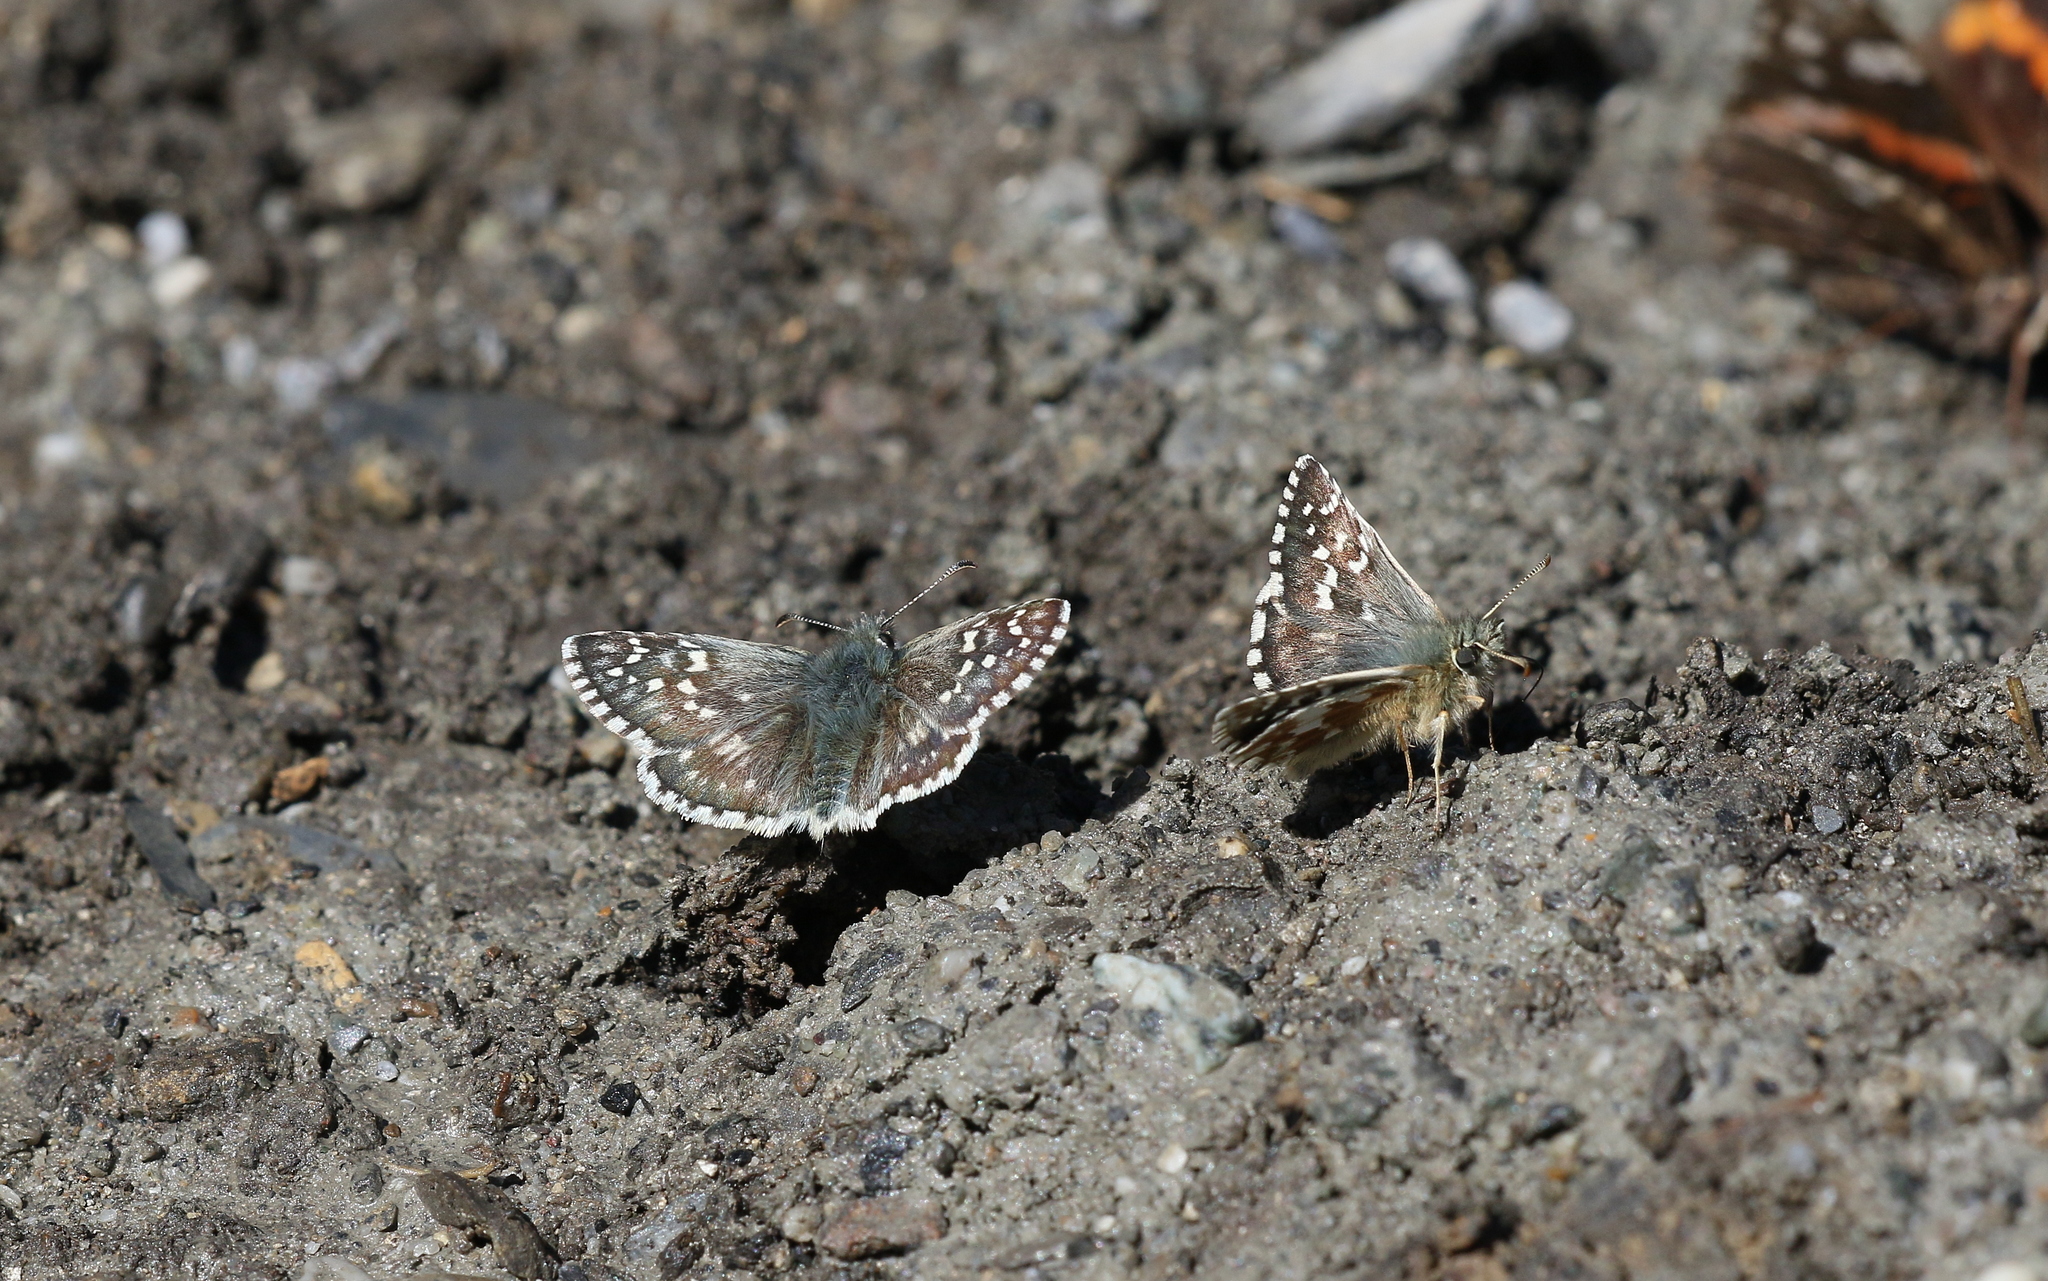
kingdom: Animalia
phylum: Arthropoda
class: Insecta
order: Lepidoptera
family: Hesperiidae
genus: Pyrgus
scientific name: Pyrgus fritillarius
